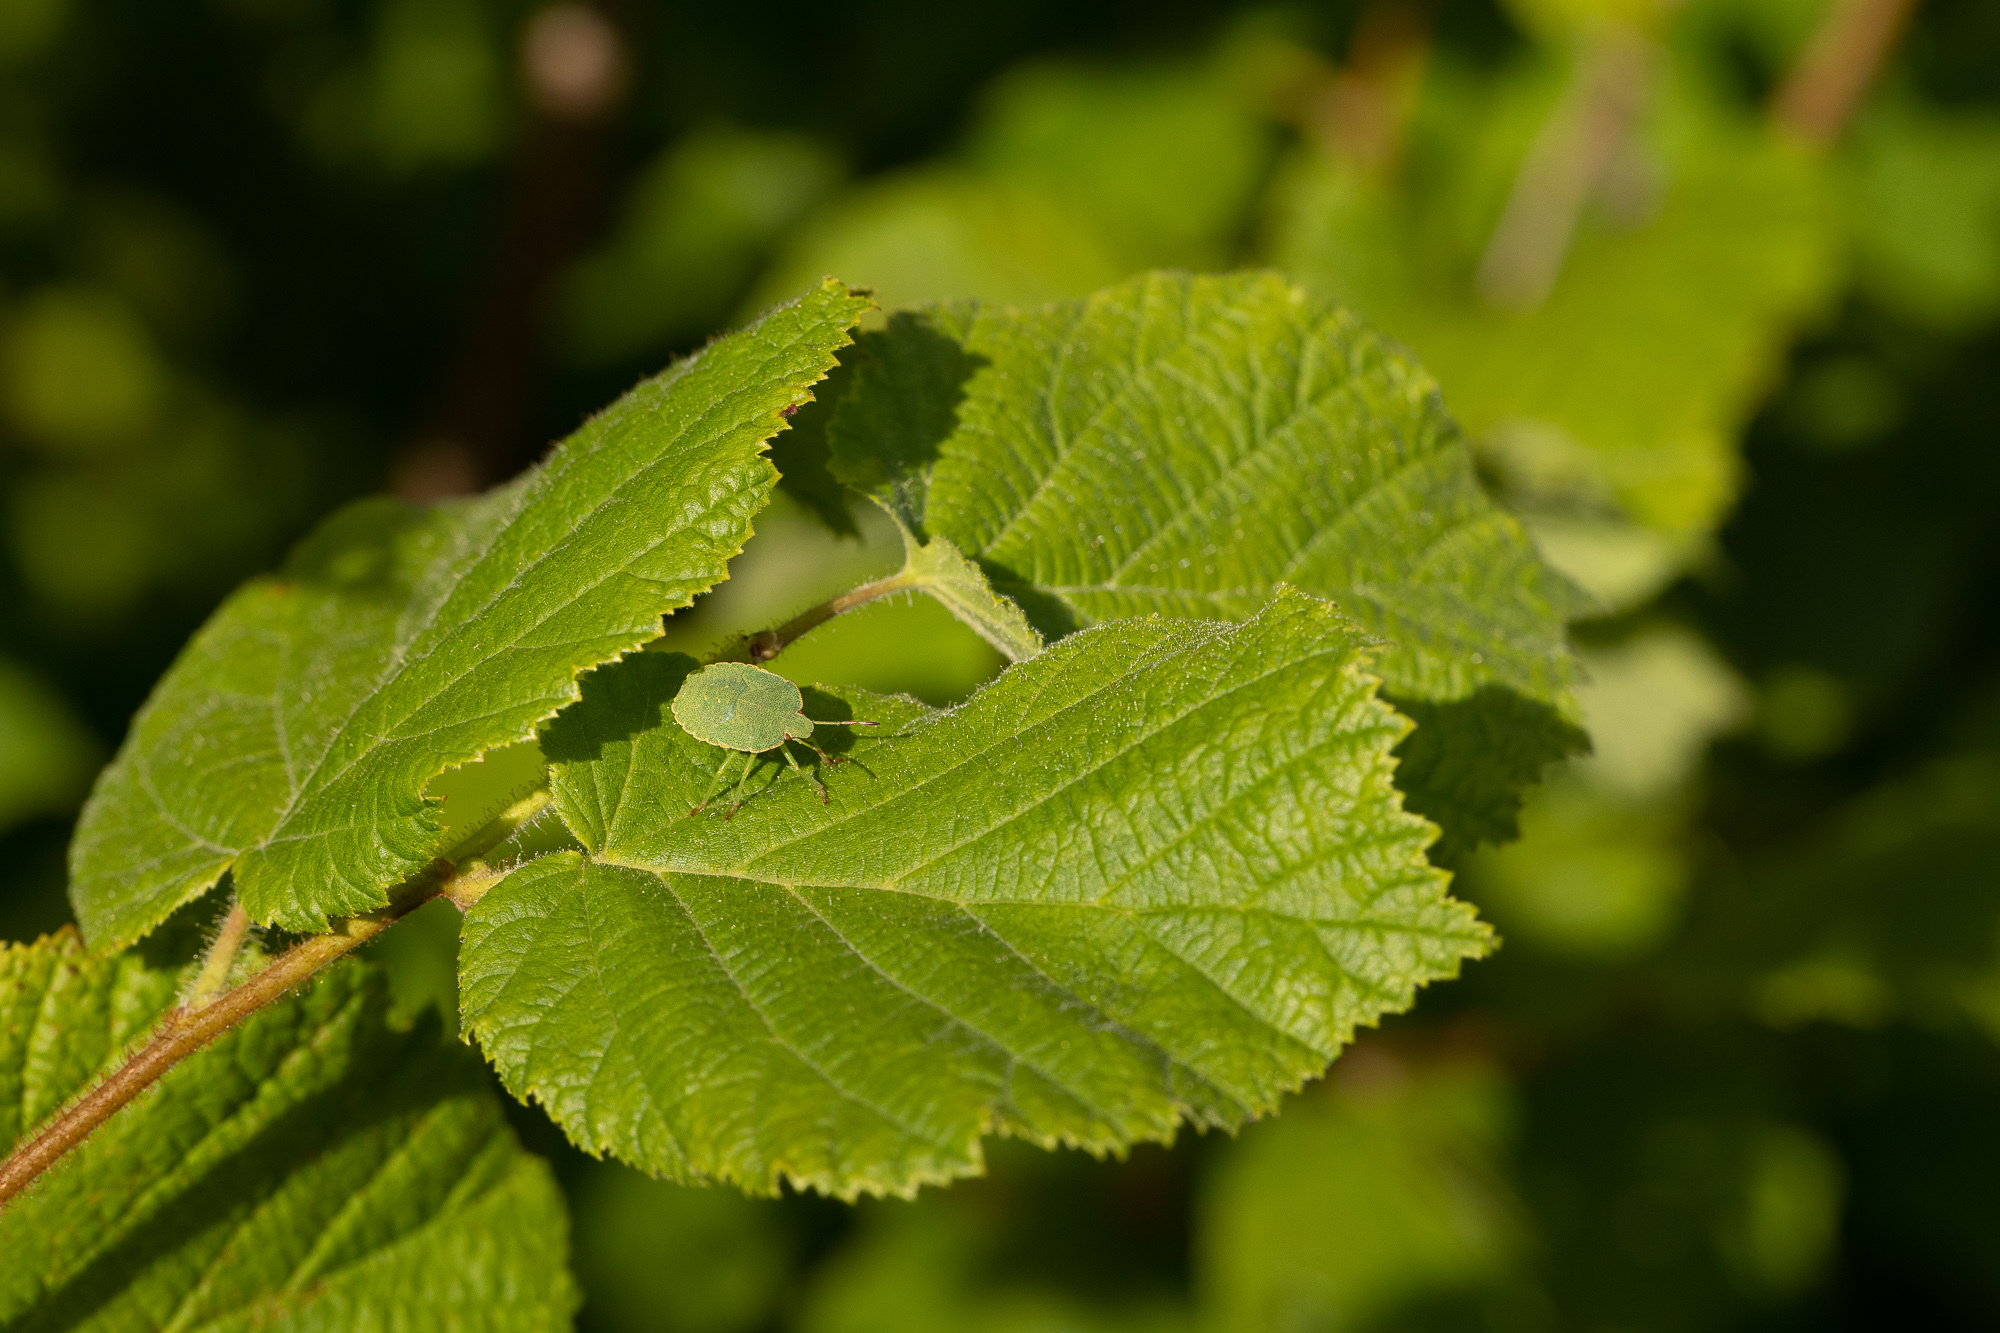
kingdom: Animalia
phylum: Arthropoda
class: Insecta
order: Hemiptera
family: Pentatomidae
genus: Palomena
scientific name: Palomena prasina
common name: Green shieldbug
